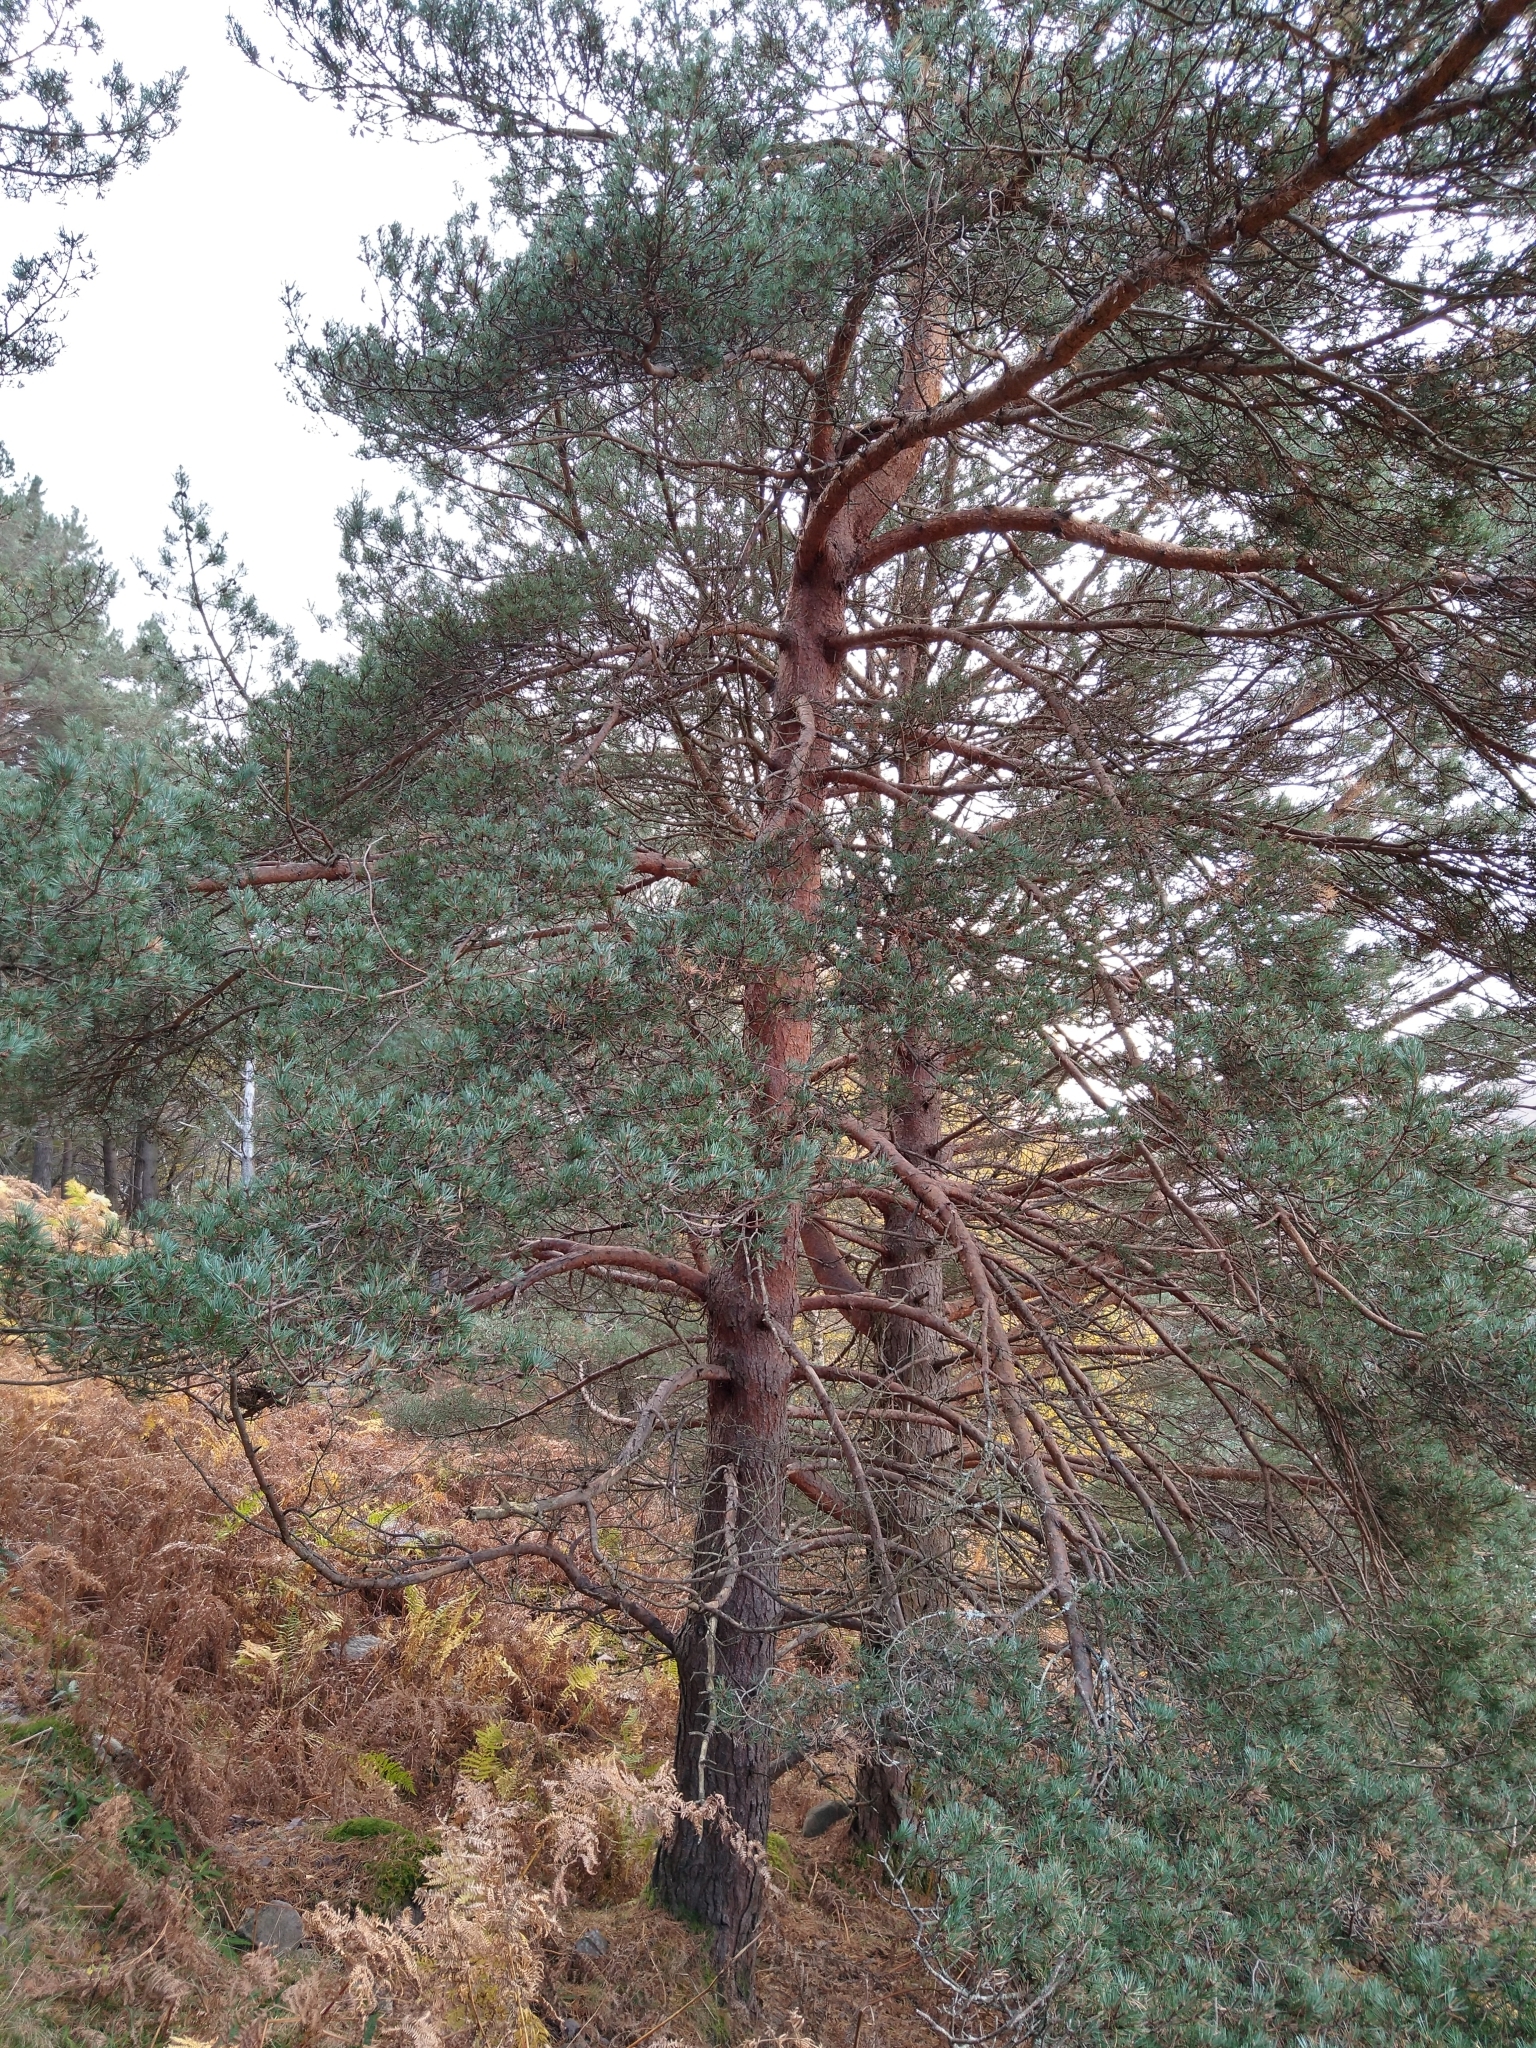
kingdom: Plantae
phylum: Tracheophyta
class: Pinopsida
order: Pinales
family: Pinaceae
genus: Pinus
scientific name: Pinus sylvestris
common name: Scots pine
